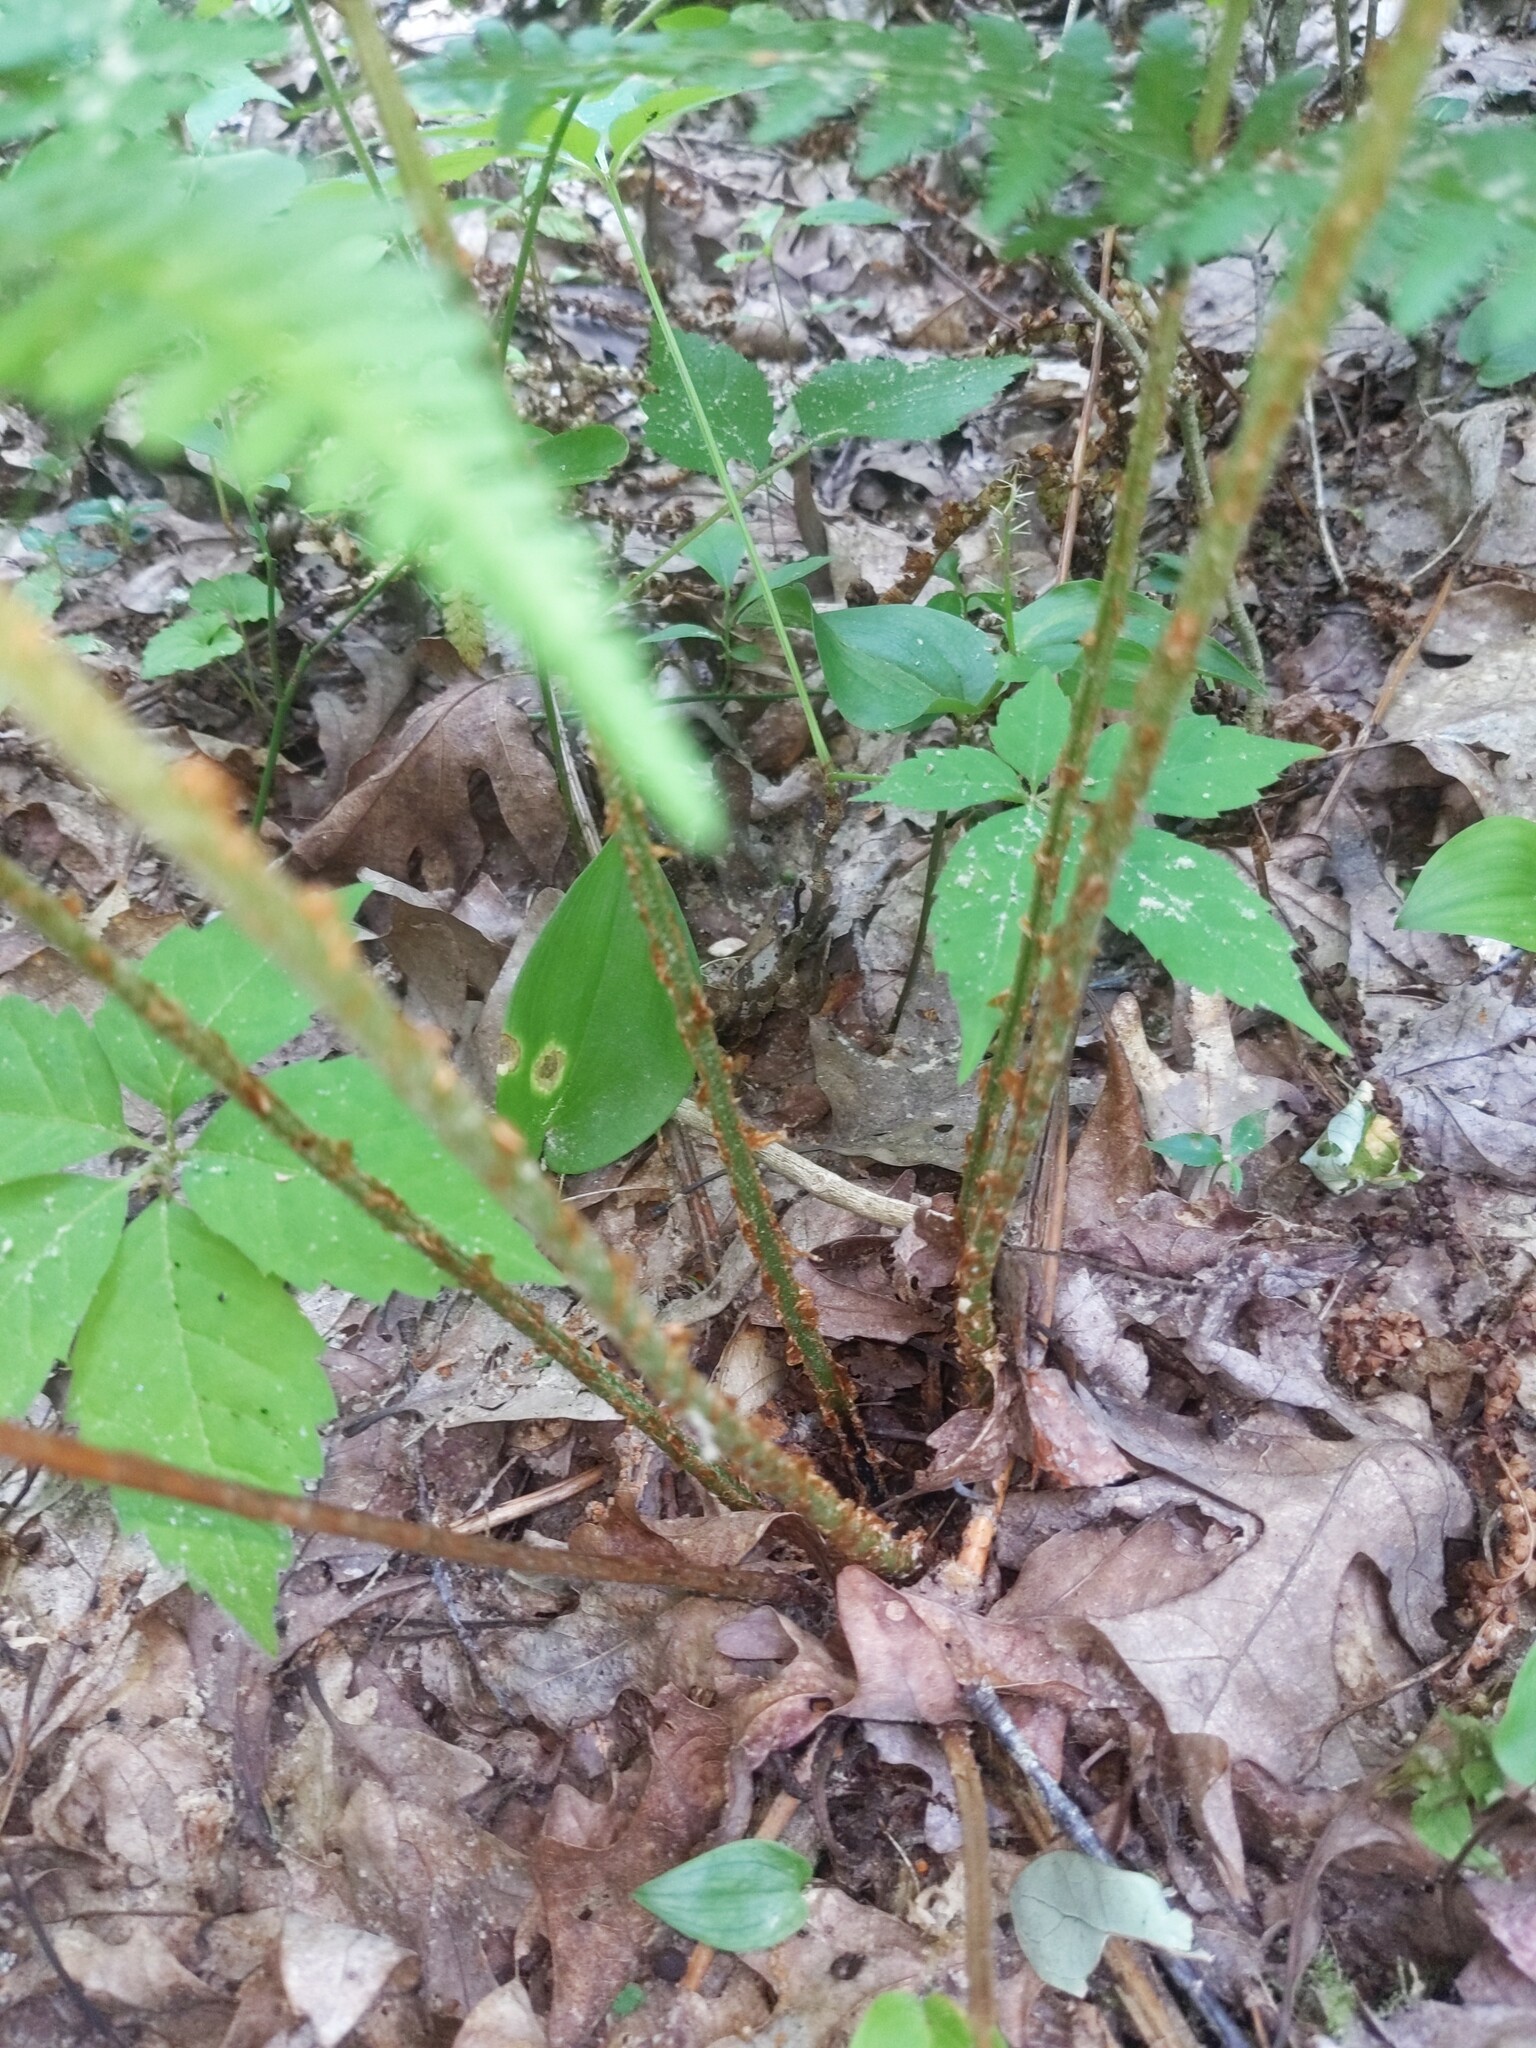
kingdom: Plantae
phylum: Tracheophyta
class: Polypodiopsida
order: Polypodiales
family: Dryopteridaceae
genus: Dryopteris
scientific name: Dryopteris intermedia
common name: Evergreen wood fern
